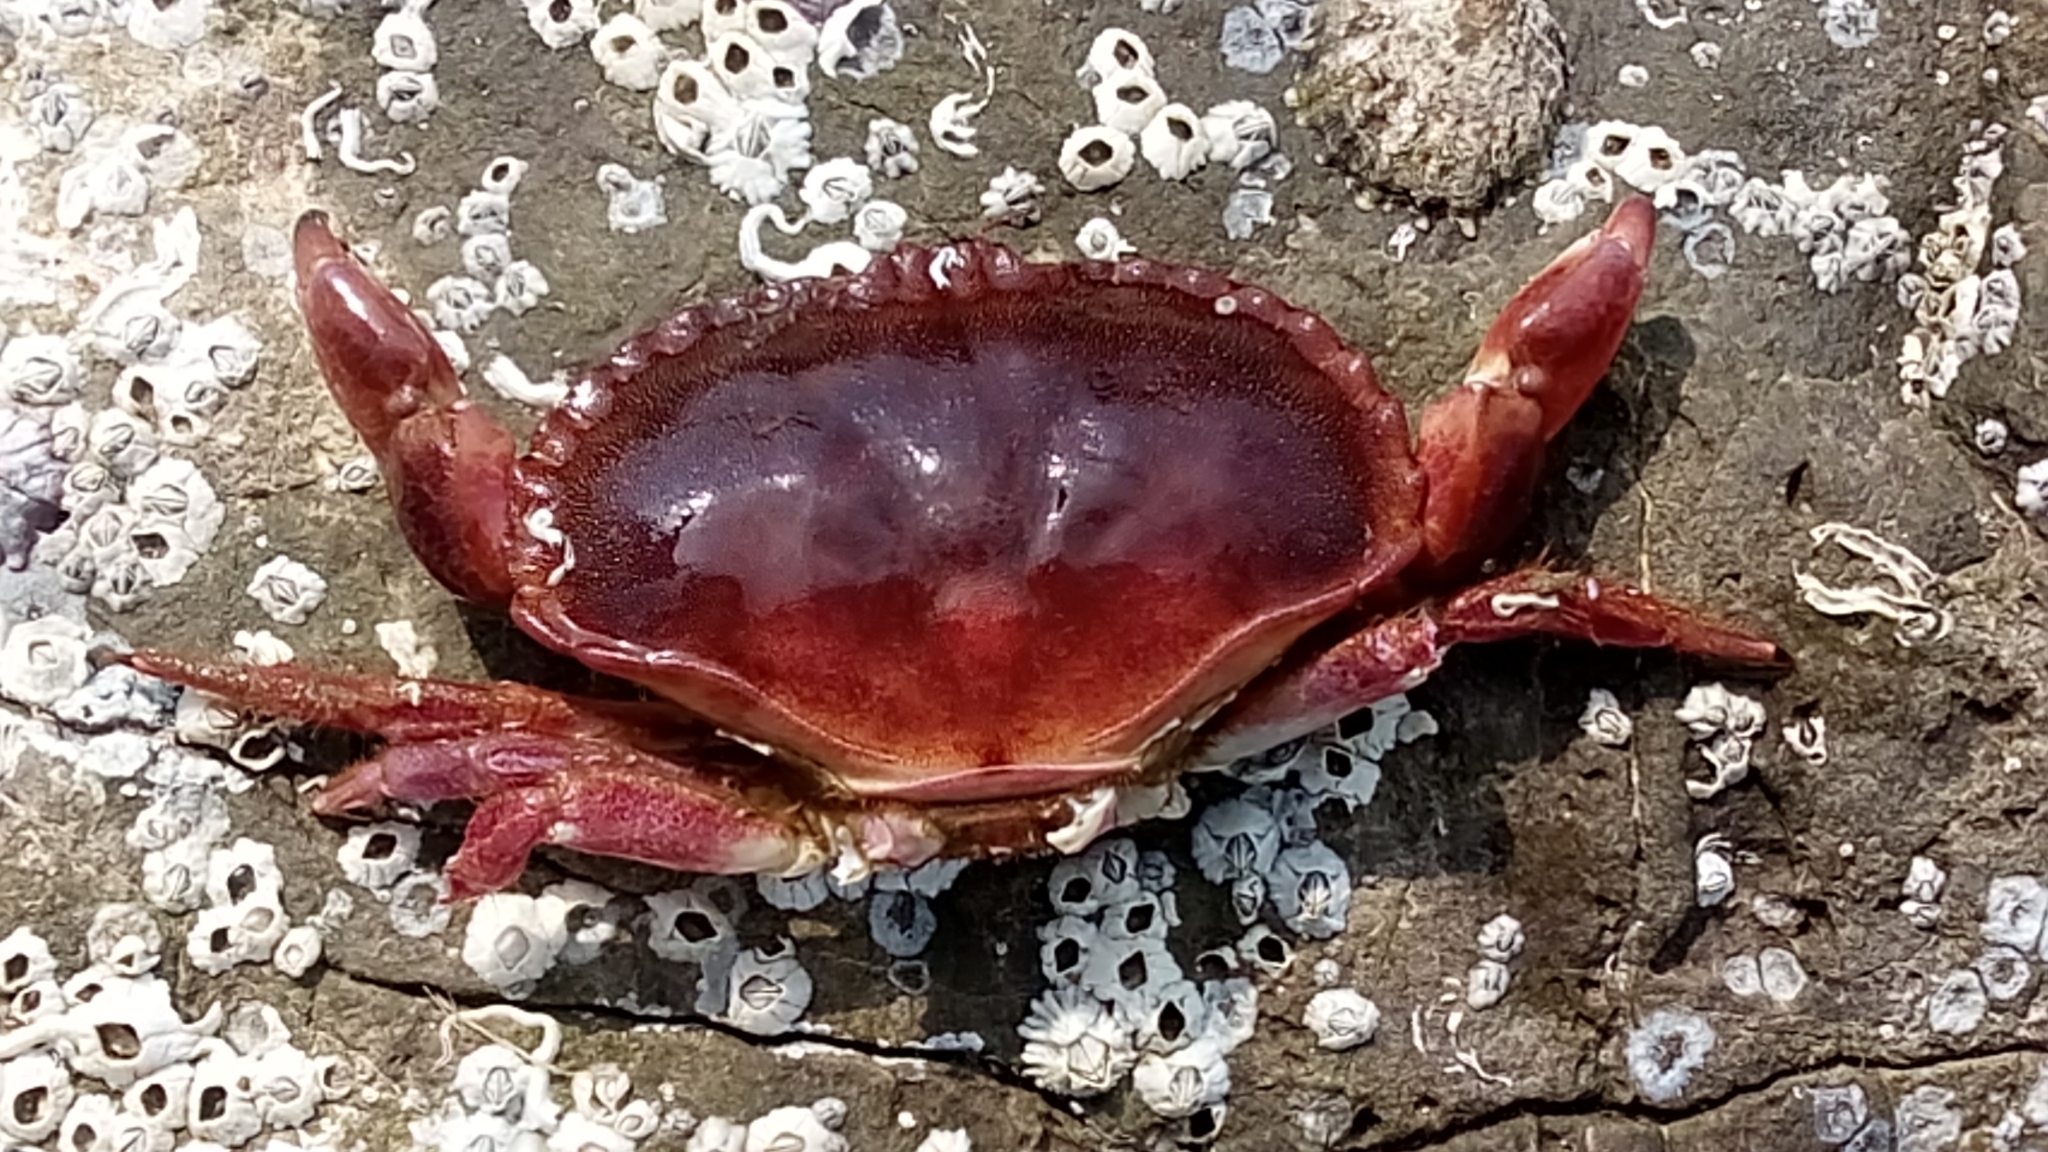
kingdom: Animalia
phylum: Arthropoda
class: Malacostraca
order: Decapoda
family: Cancridae
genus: Cancer
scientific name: Cancer pagurus
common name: Edible crab
